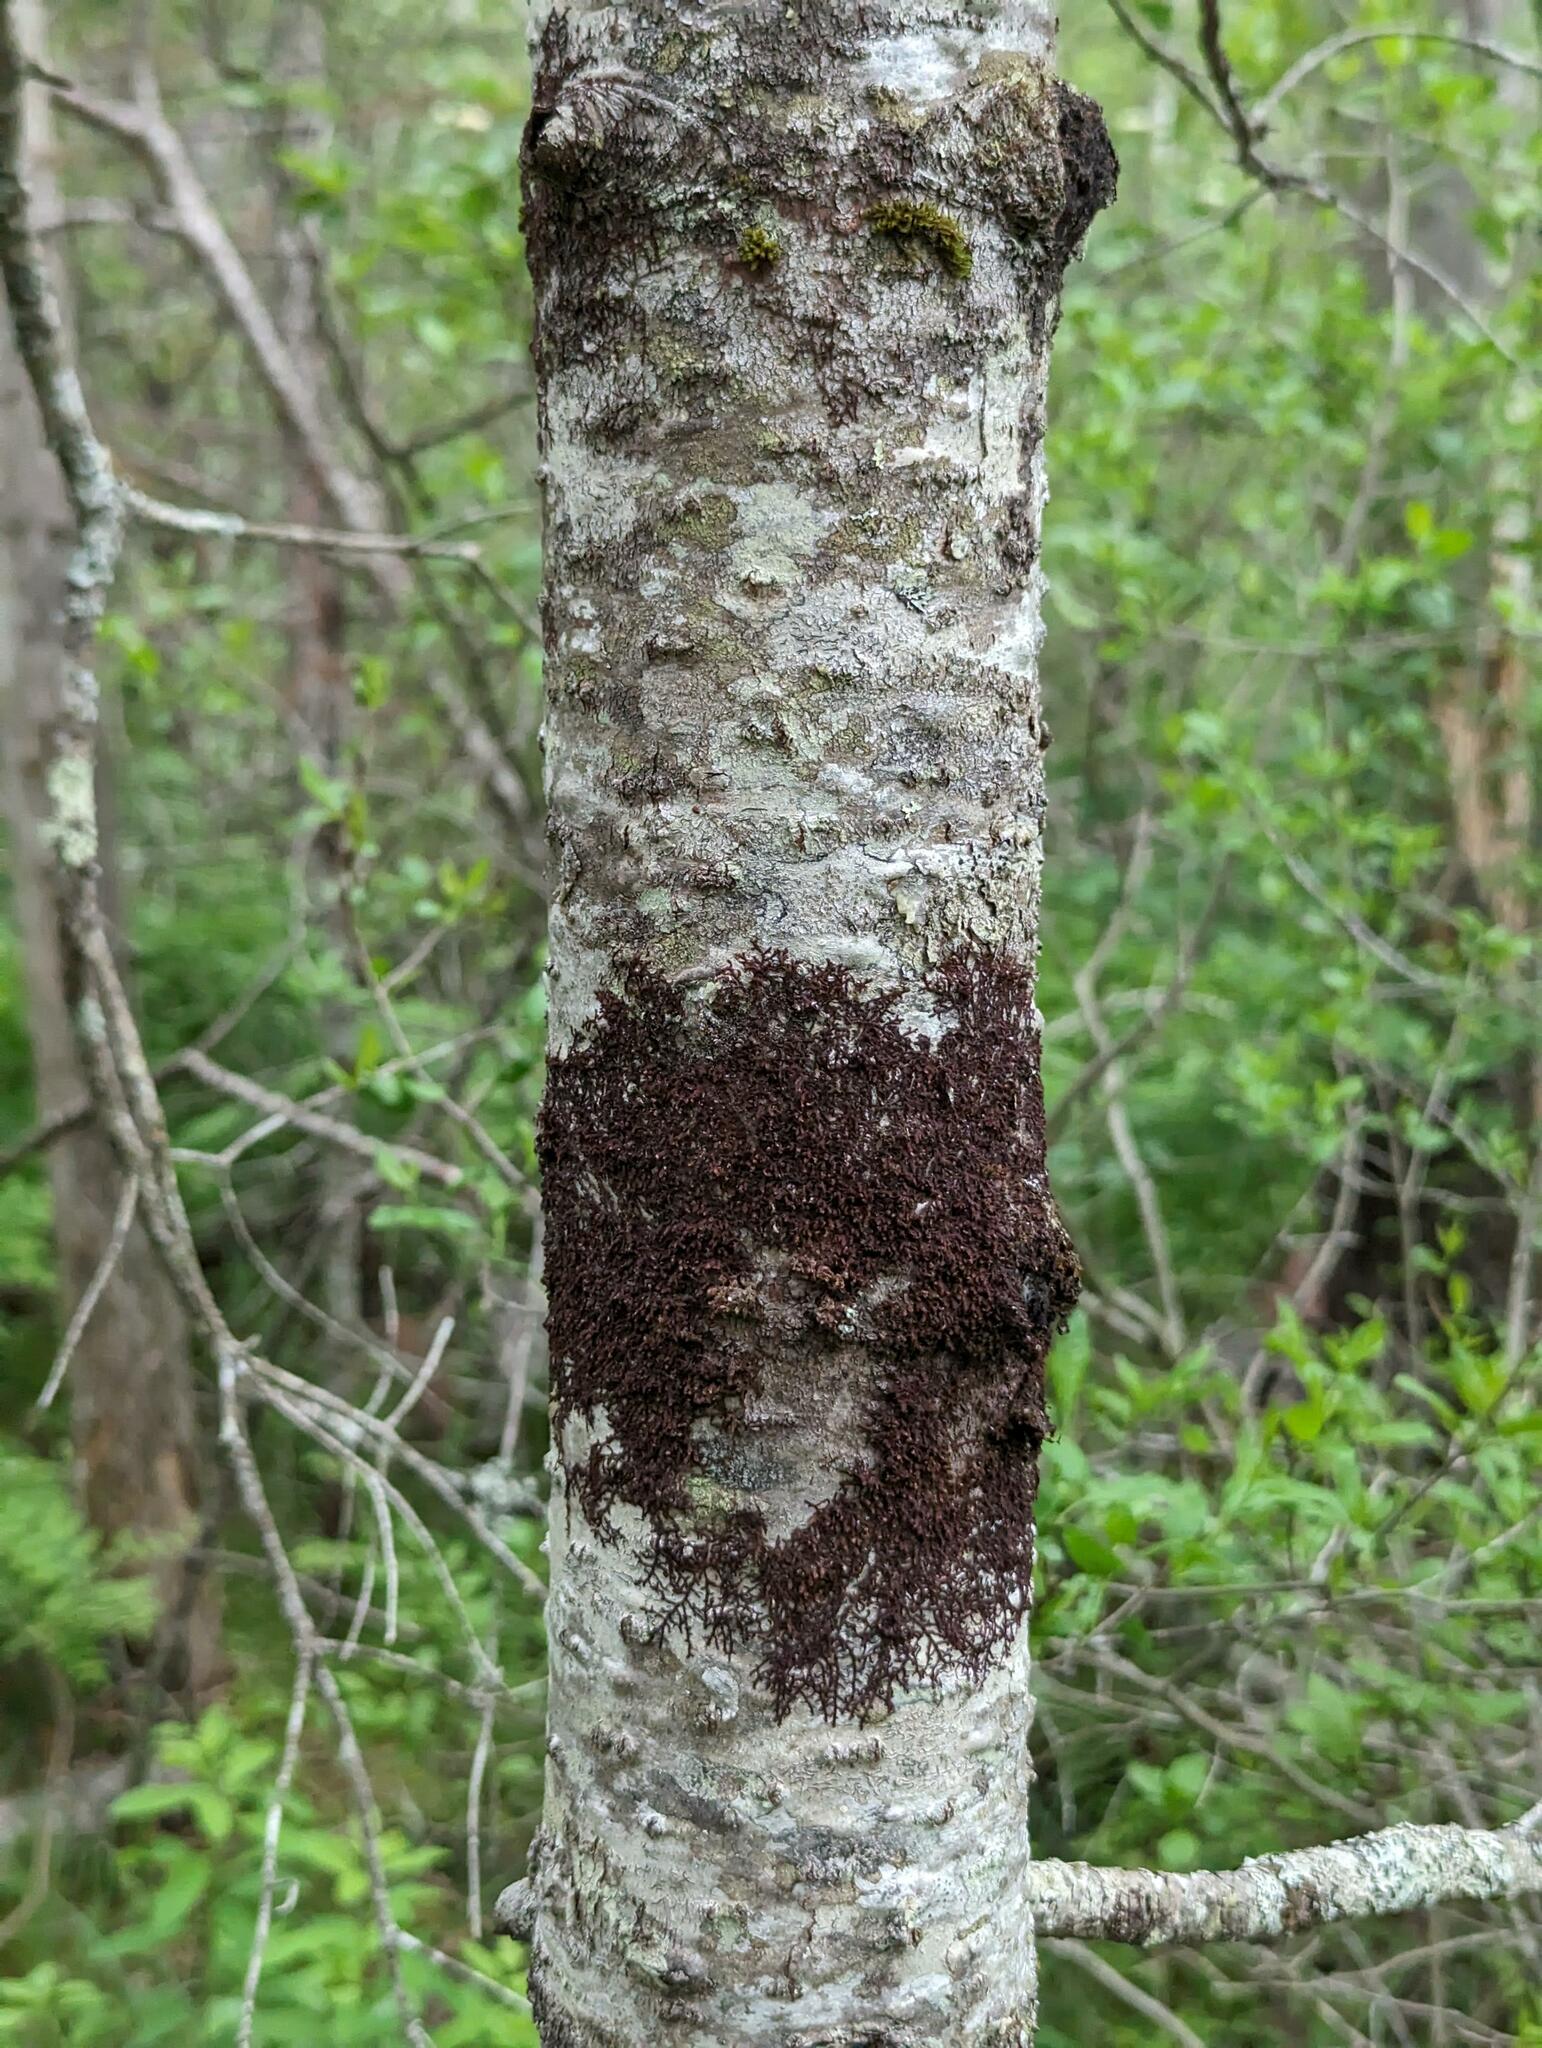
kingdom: Plantae
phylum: Marchantiophyta
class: Jungermanniopsida
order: Porellales
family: Frullaniaceae
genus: Frullania
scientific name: Frullania eboracensis
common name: New york scalewort
